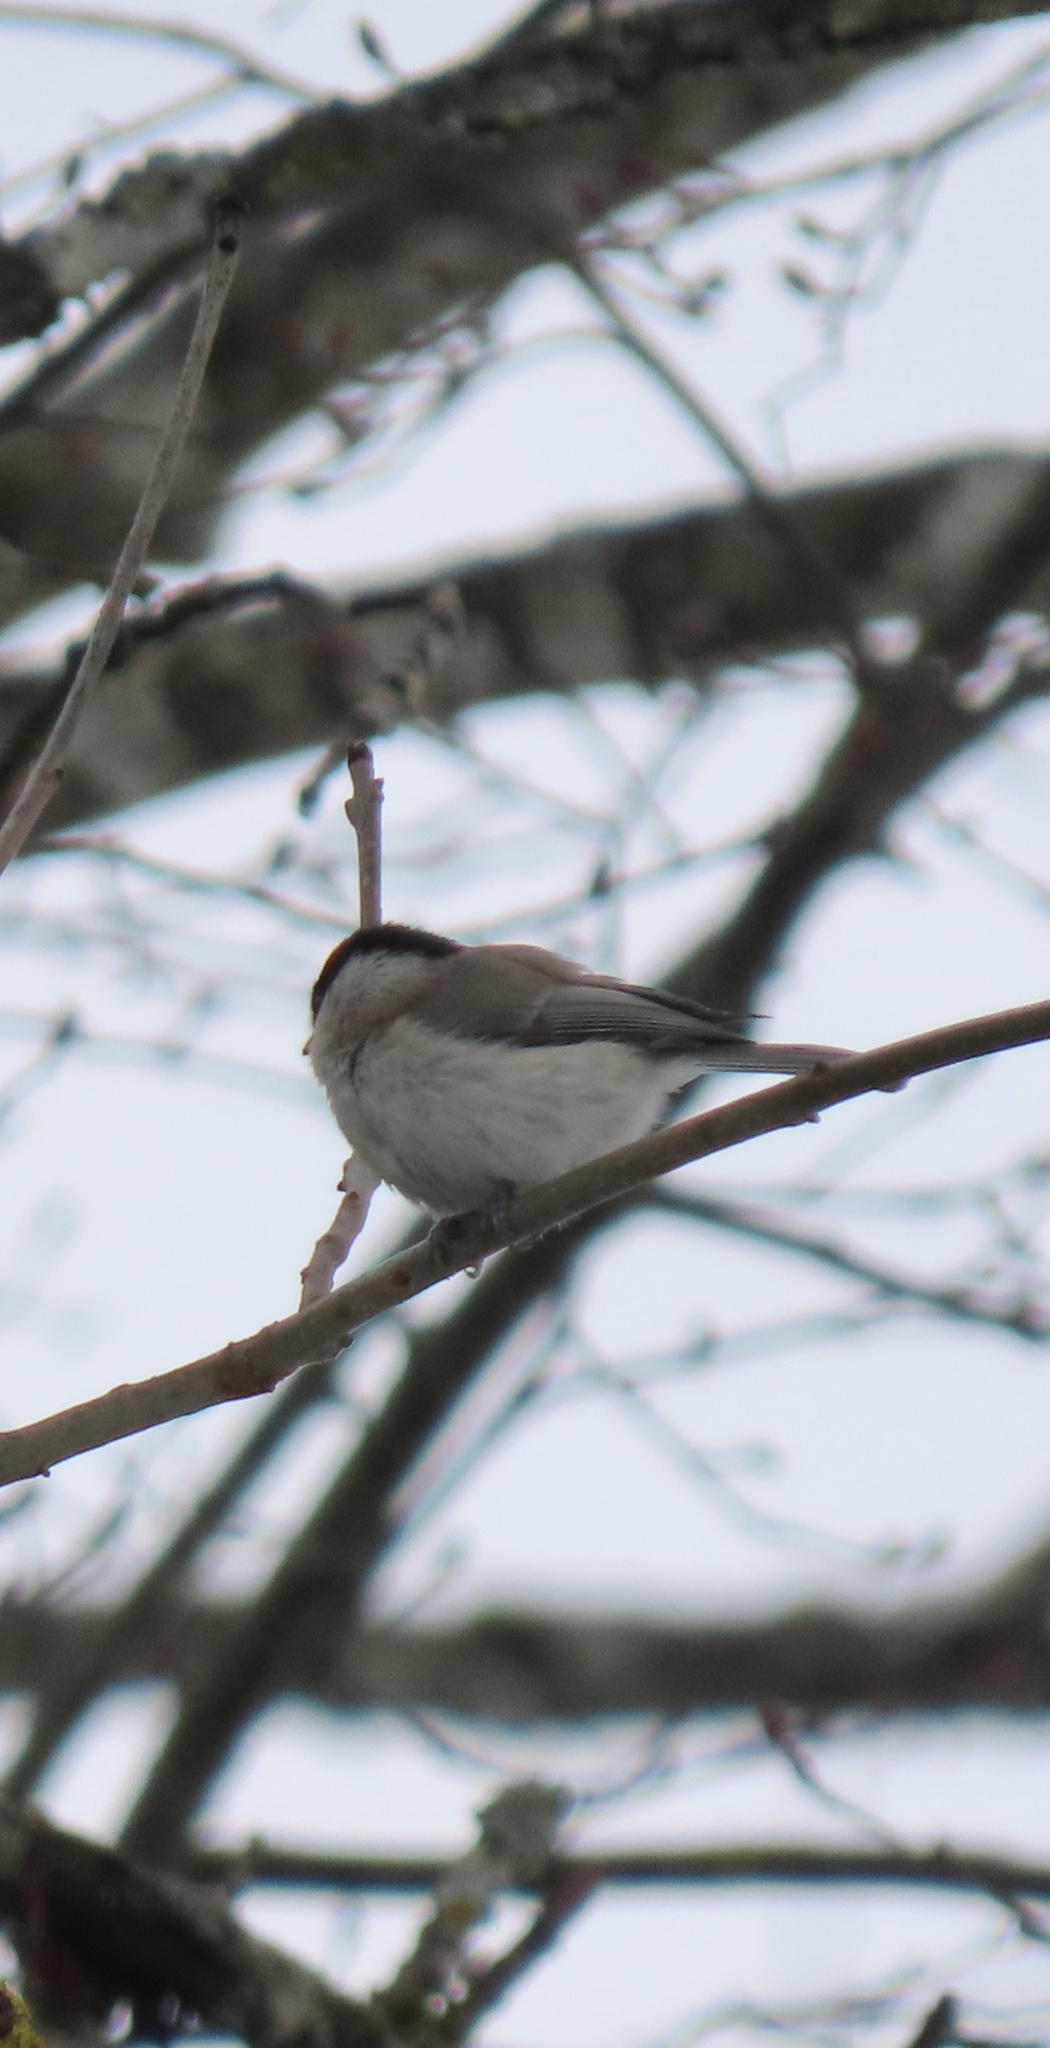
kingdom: Animalia
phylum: Chordata
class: Aves
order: Passeriformes
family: Paridae
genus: Poecile
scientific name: Poecile palustris
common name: Marsh tit
